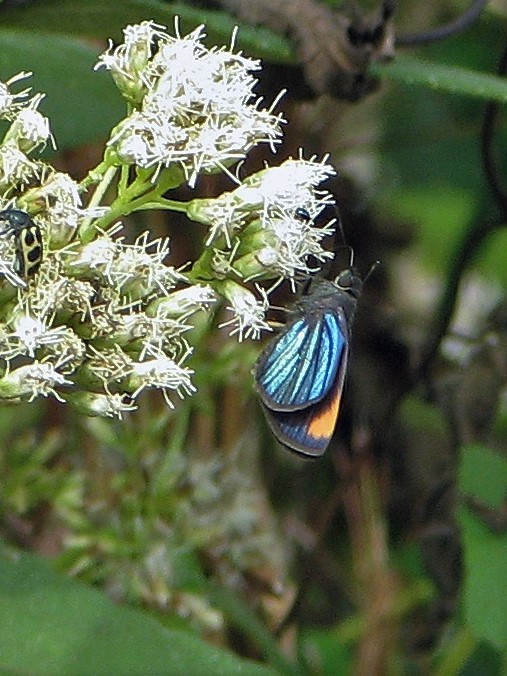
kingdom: Animalia
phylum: Arthropoda
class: Insecta
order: Lepidoptera
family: Hesperiidae
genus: Mnasitheus
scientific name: Mnasitheus
